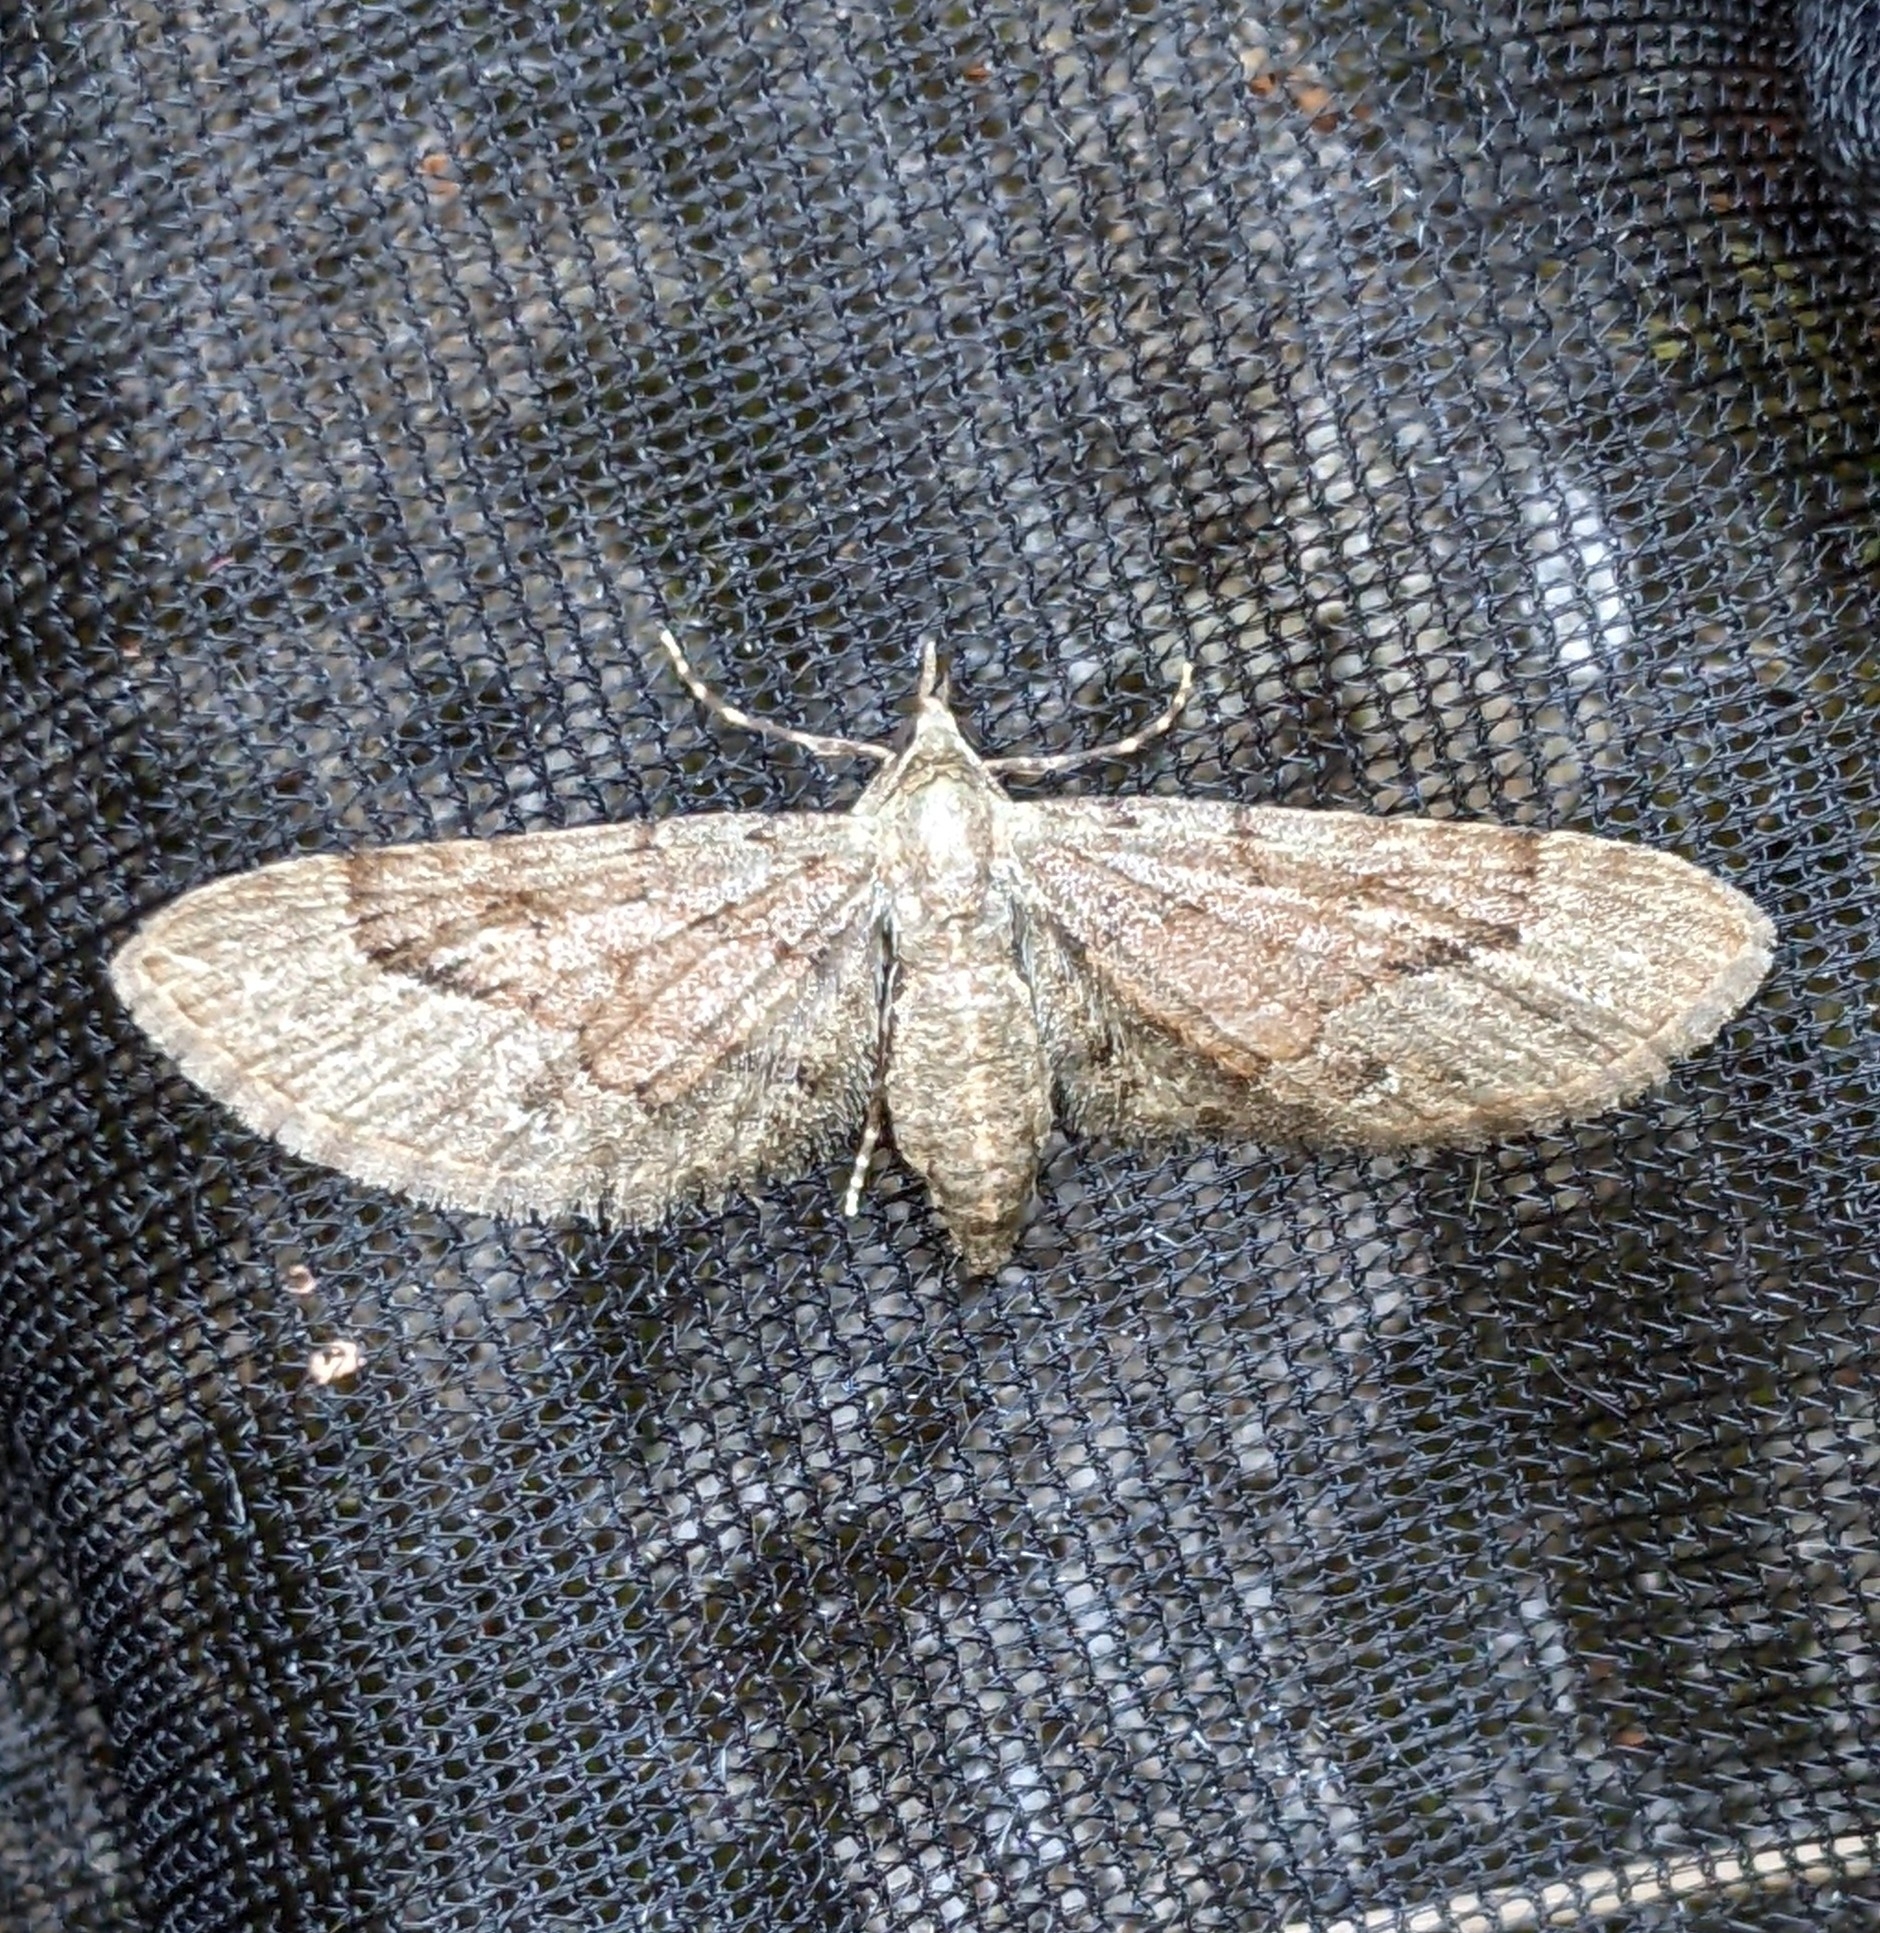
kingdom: Animalia
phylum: Arthropoda
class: Insecta
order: Lepidoptera
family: Geometridae
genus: Eupithecia
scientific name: Eupithecia unicolor
